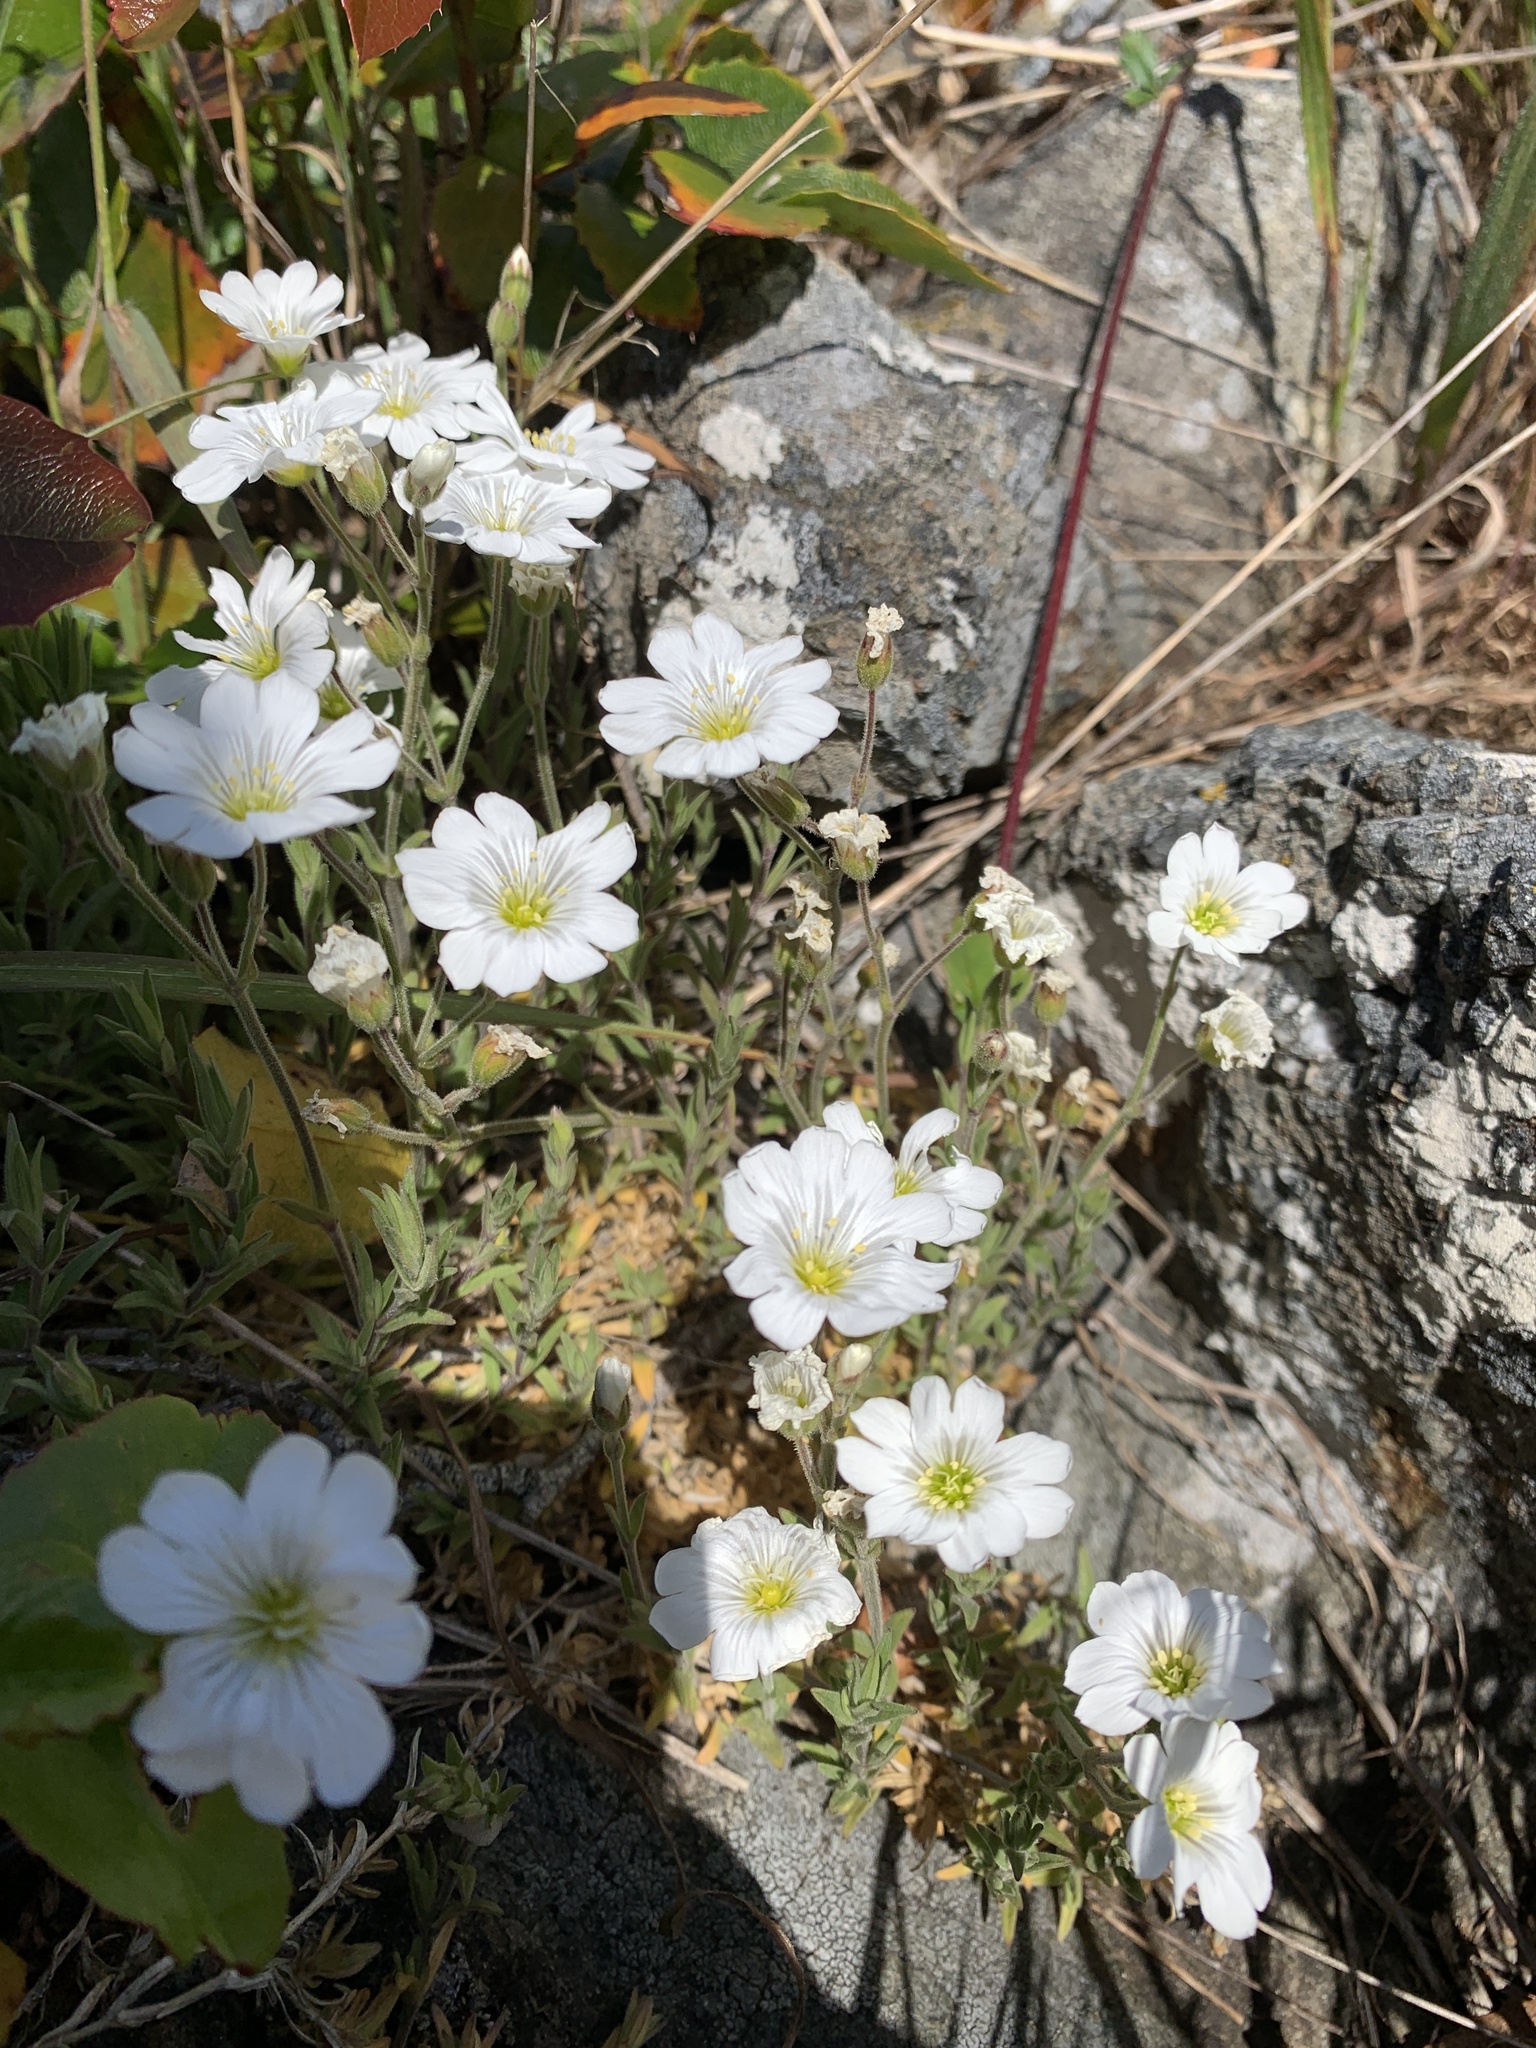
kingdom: Plantae
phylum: Tracheophyta
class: Magnoliopsida
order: Caryophyllales
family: Caryophyllaceae
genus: Cerastium
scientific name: Cerastium arvense
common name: Field mouse-ear
